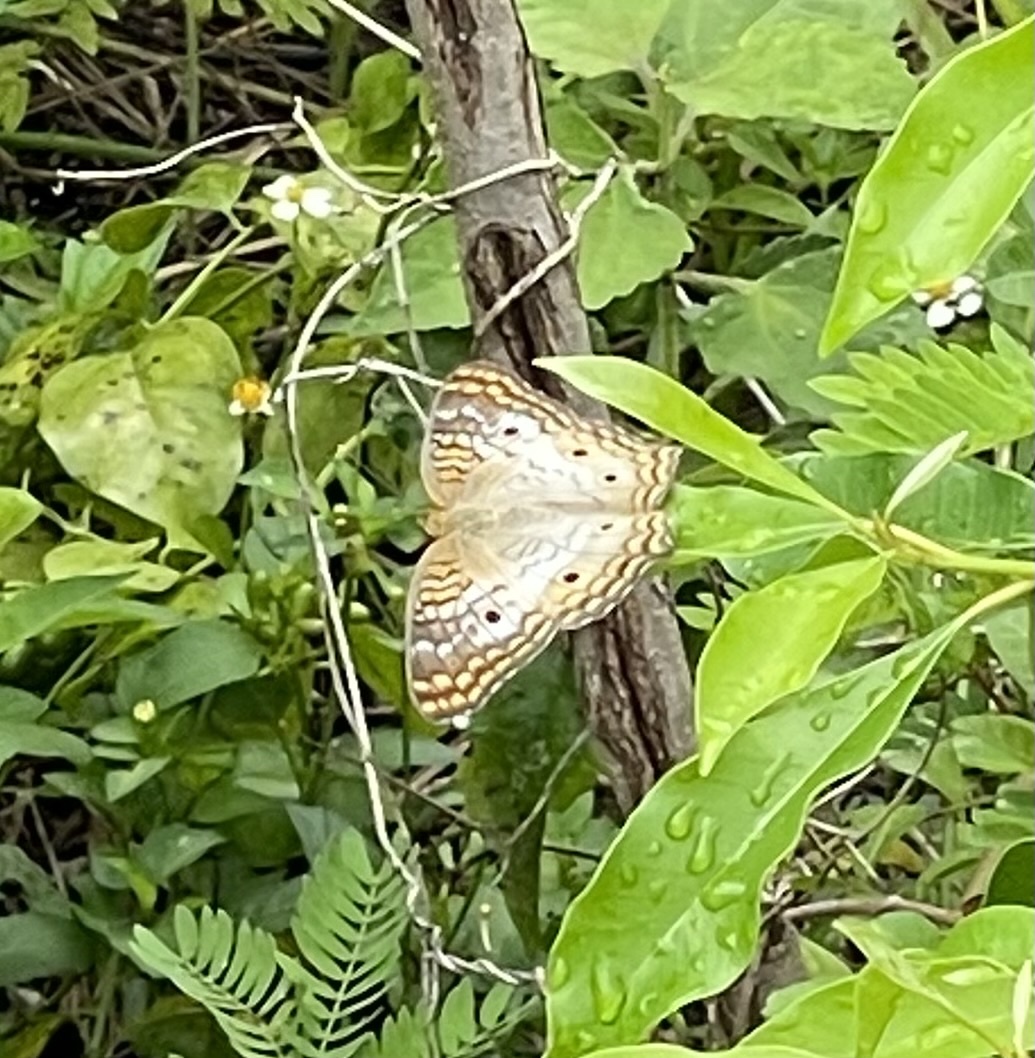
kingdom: Animalia
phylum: Arthropoda
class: Insecta
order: Lepidoptera
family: Nymphalidae
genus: Anartia
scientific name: Anartia jatrophae
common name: White peacock
